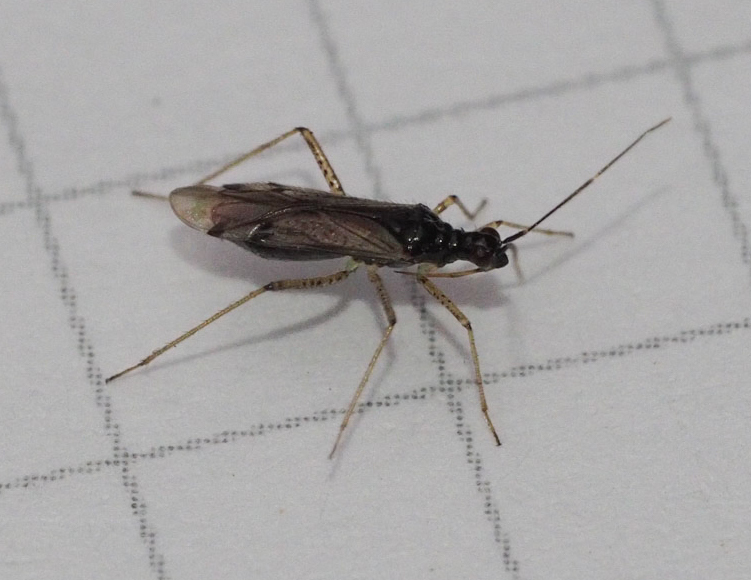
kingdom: Animalia
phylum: Arthropoda
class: Insecta
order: Hemiptera
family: Miridae
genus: Dicyphus
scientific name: Dicyphus errans
